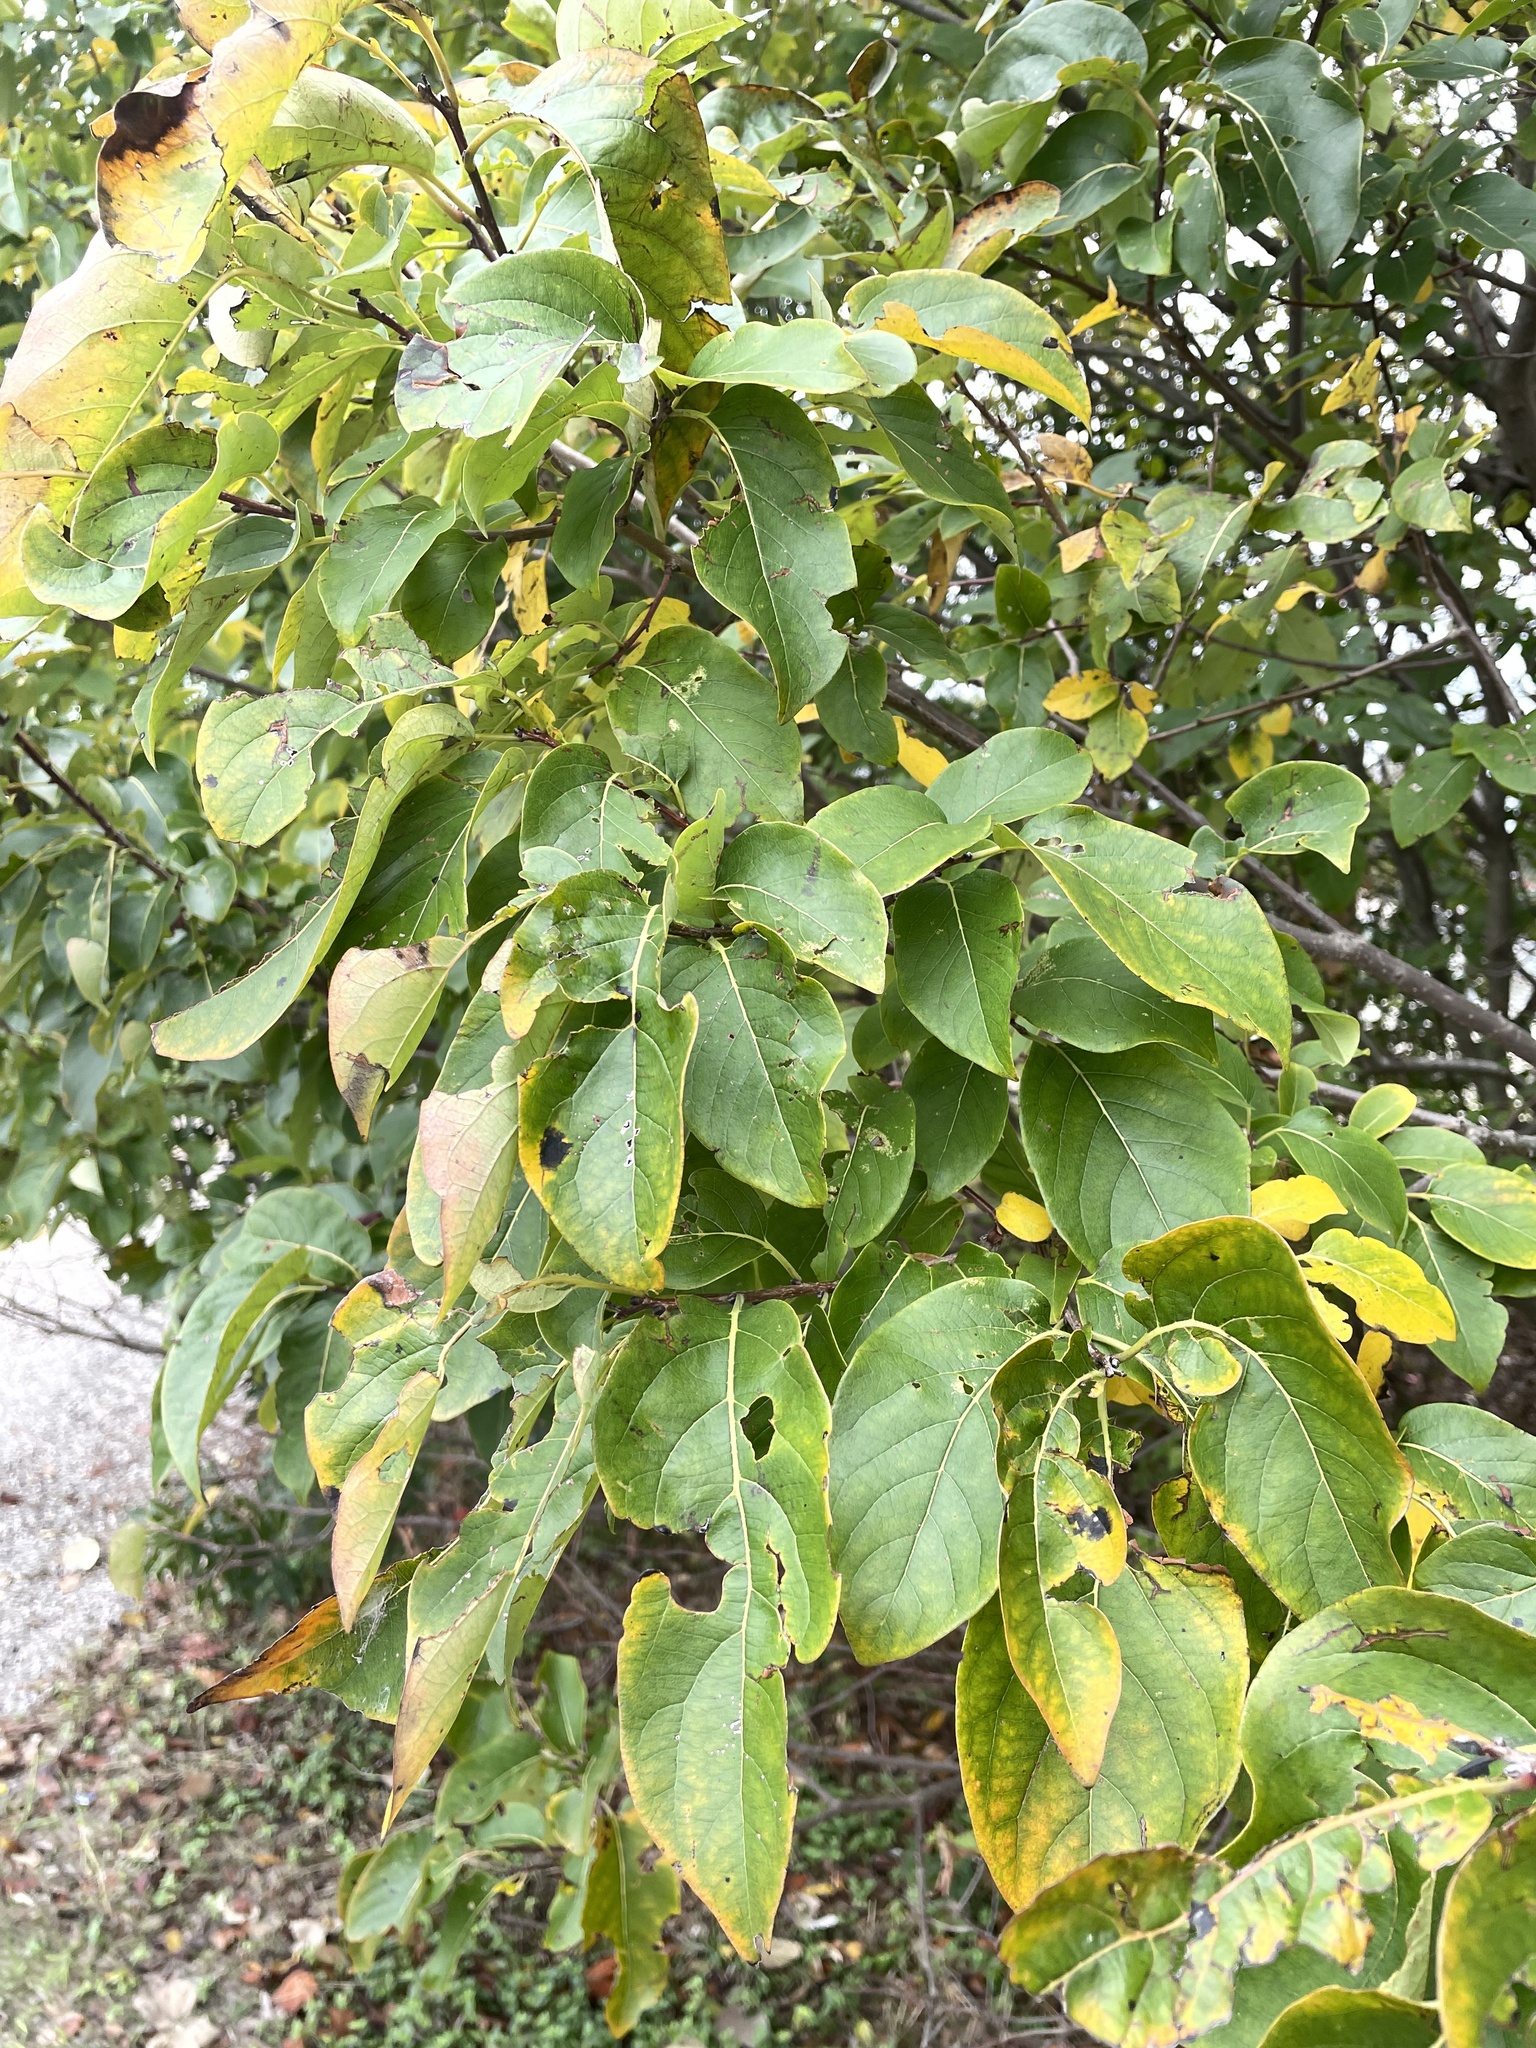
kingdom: Plantae
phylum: Tracheophyta
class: Magnoliopsida
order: Ericales
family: Ebenaceae
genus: Diospyros
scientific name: Diospyros virginiana
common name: Persimmon
